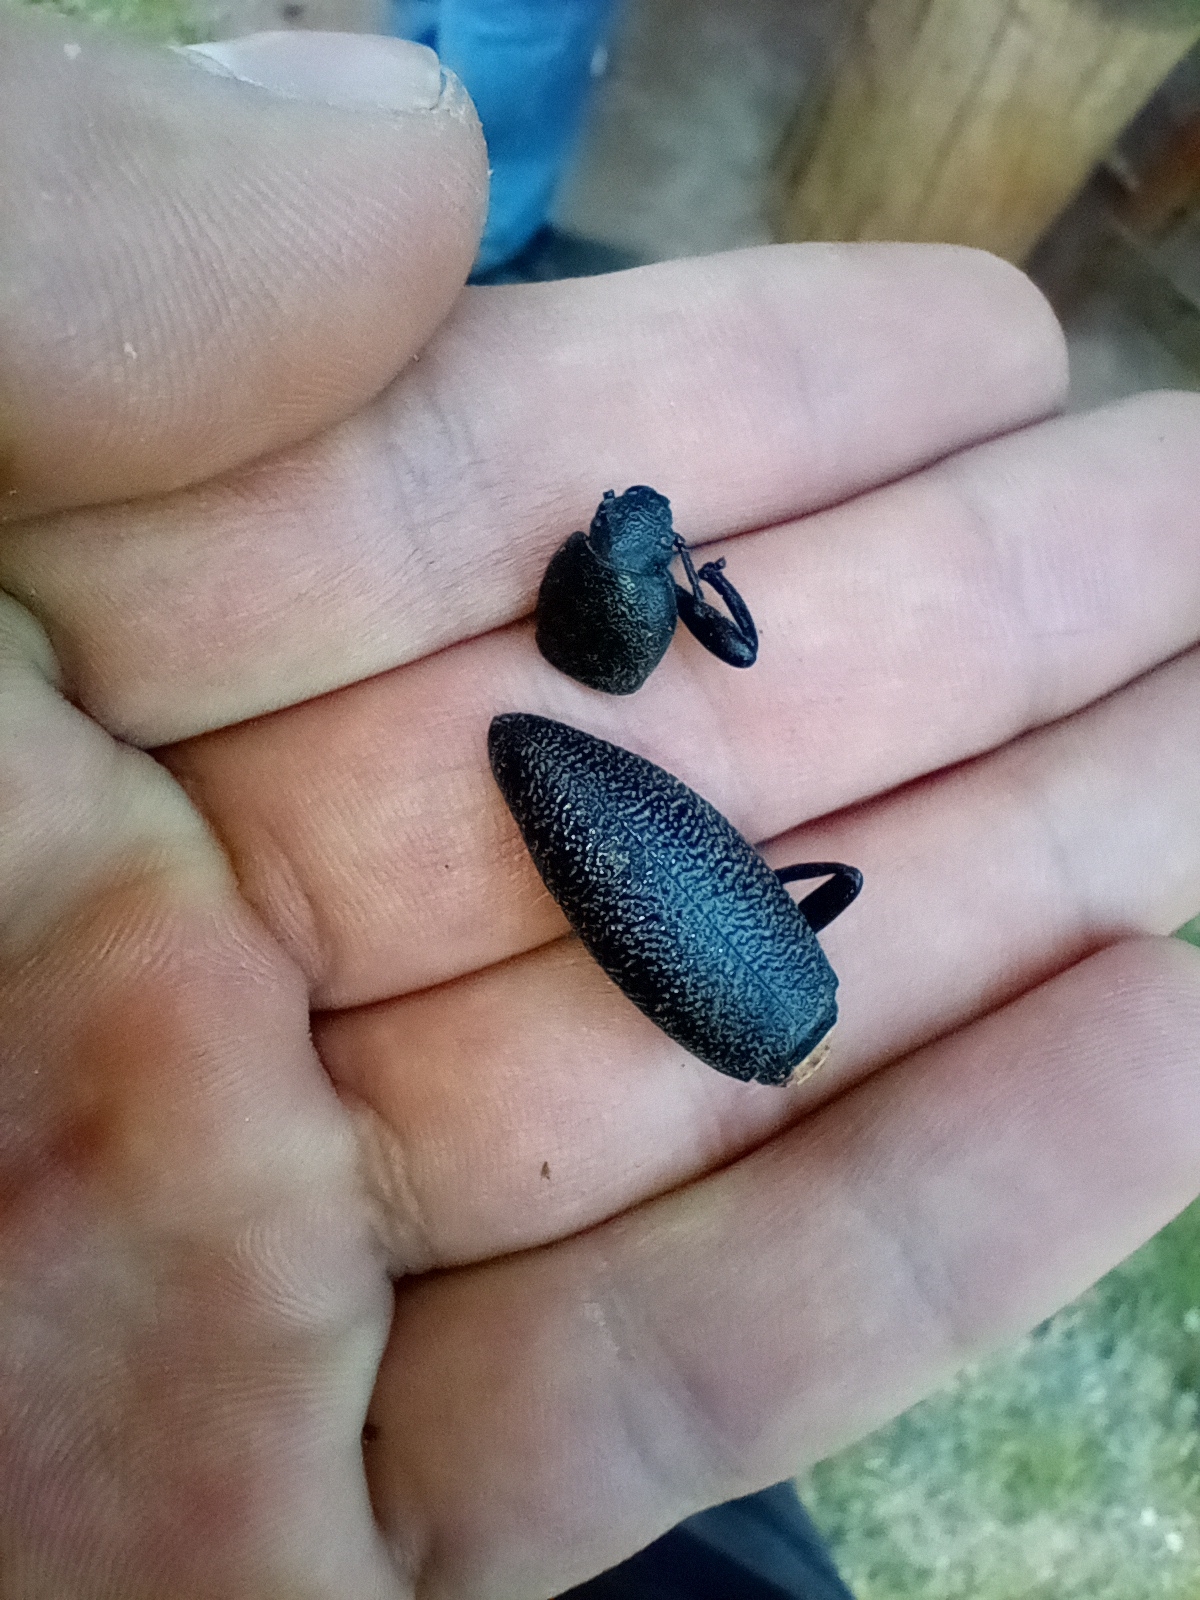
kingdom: Animalia
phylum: Arthropoda
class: Insecta
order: Coleoptera
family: Tenebrionidae
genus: Eleodes
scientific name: Eleodes ruida
